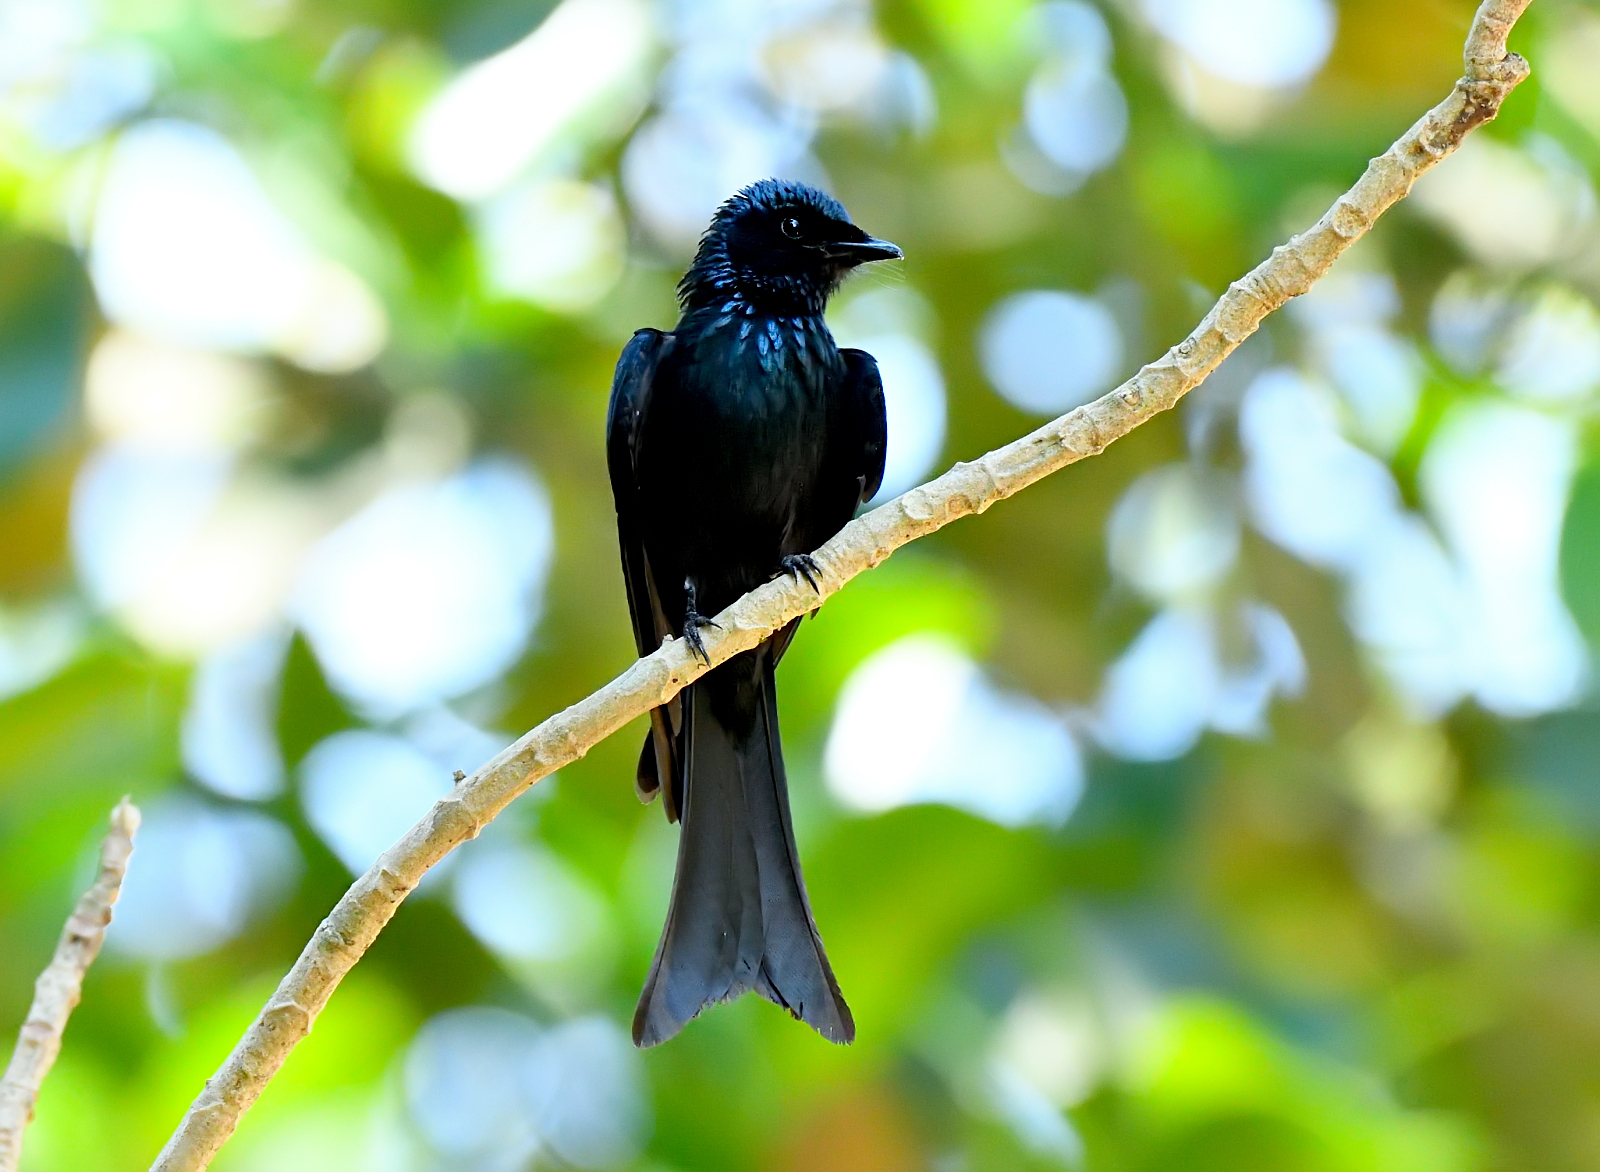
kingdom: Animalia
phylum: Chordata
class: Aves
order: Passeriformes
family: Dicruridae
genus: Dicrurus
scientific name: Dicrurus aeneus
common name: Bronzed drongo
